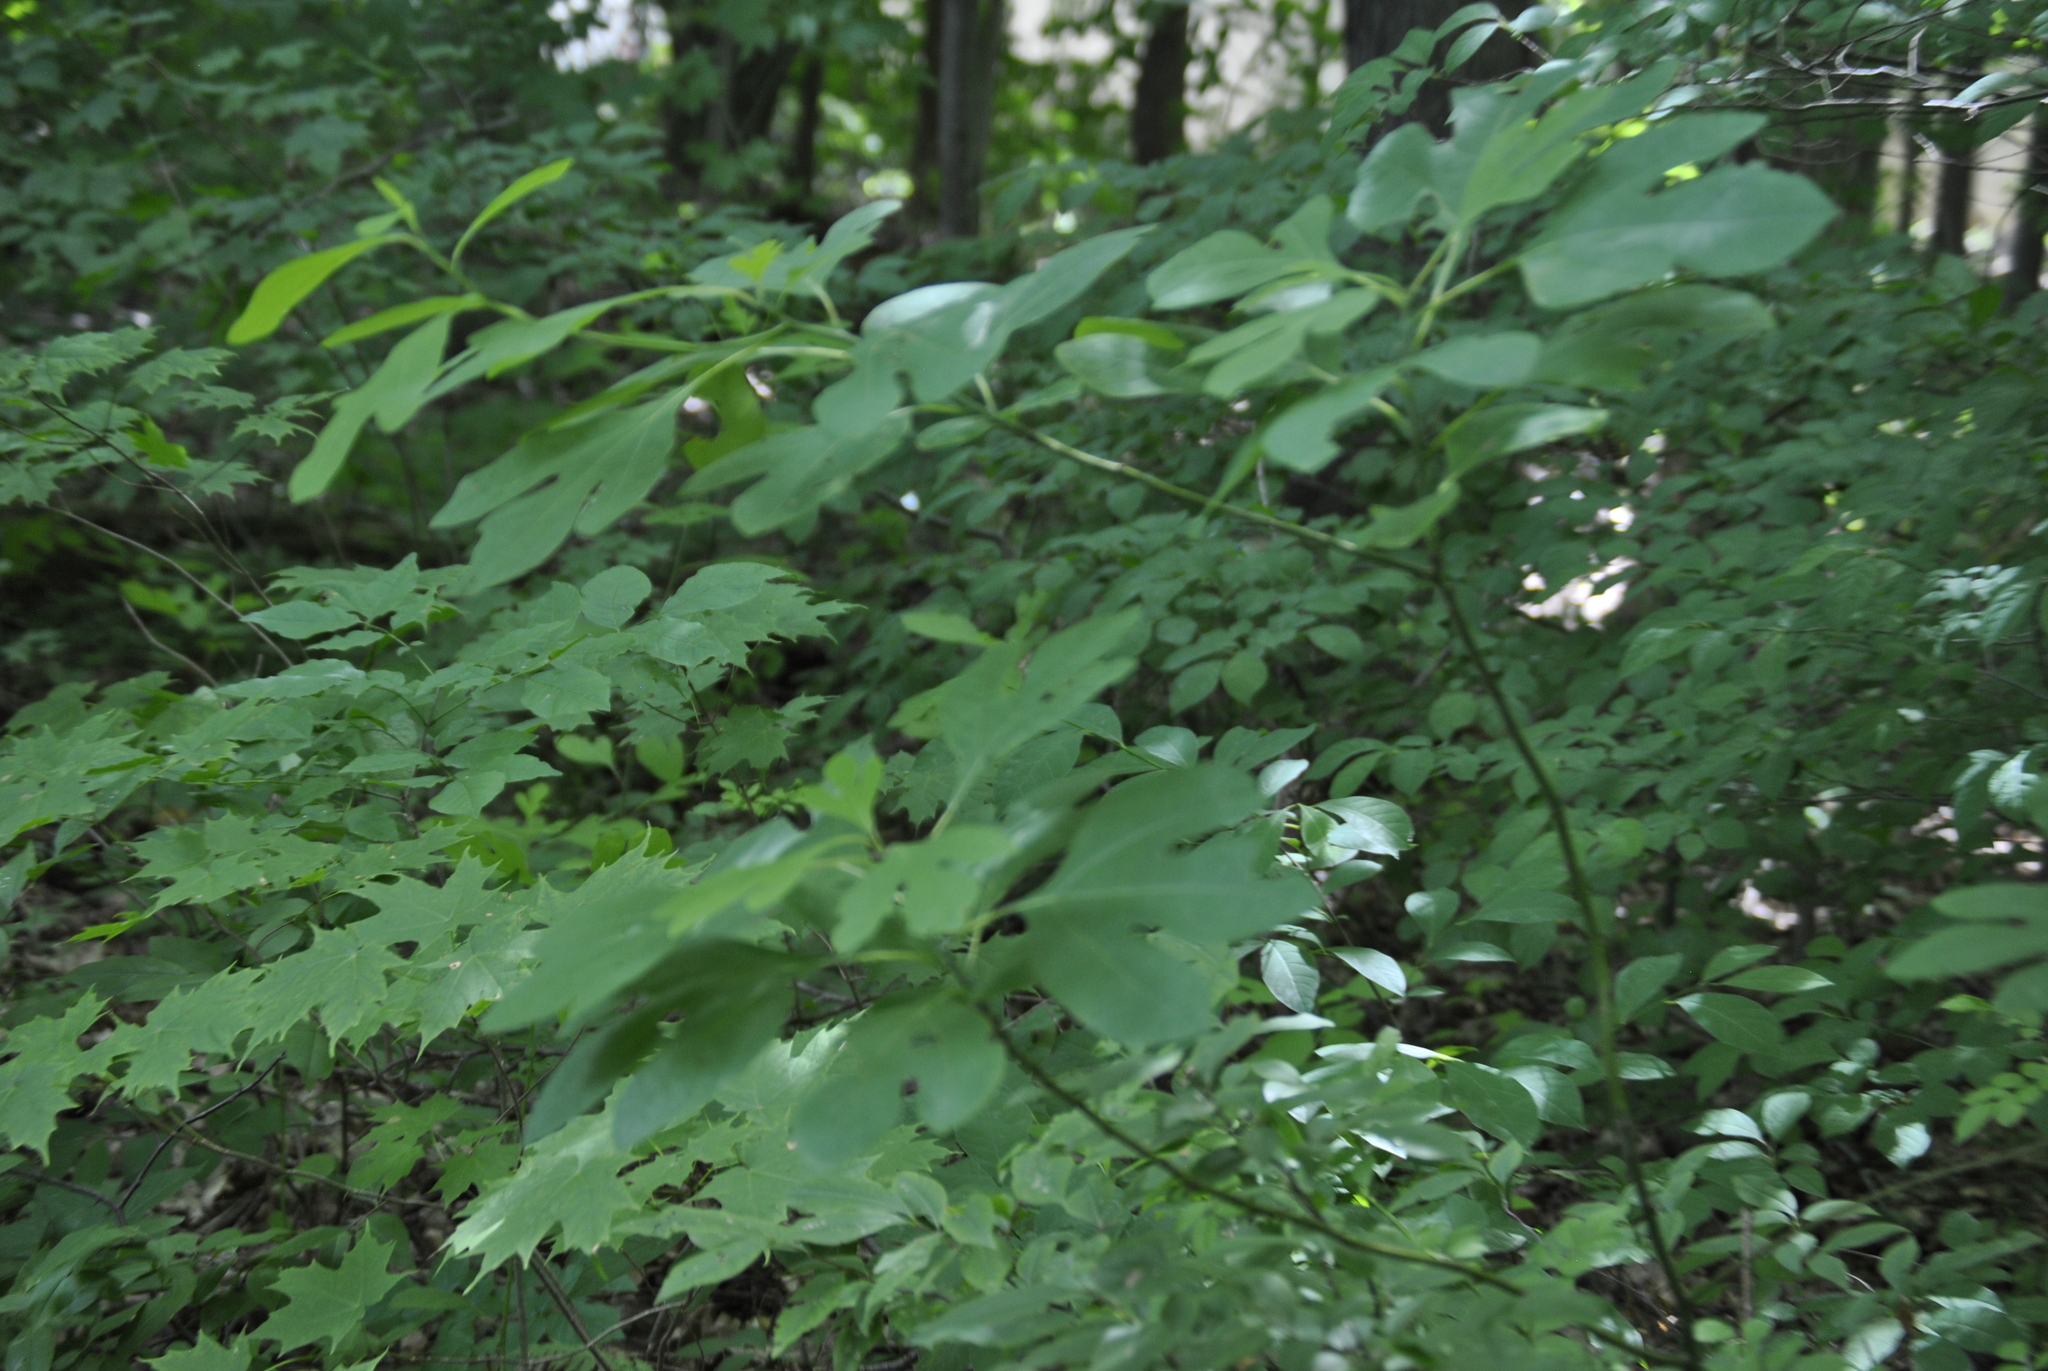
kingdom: Plantae
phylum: Tracheophyta
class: Magnoliopsida
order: Laurales
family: Lauraceae
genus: Sassafras
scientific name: Sassafras albidum
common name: Sassafras
